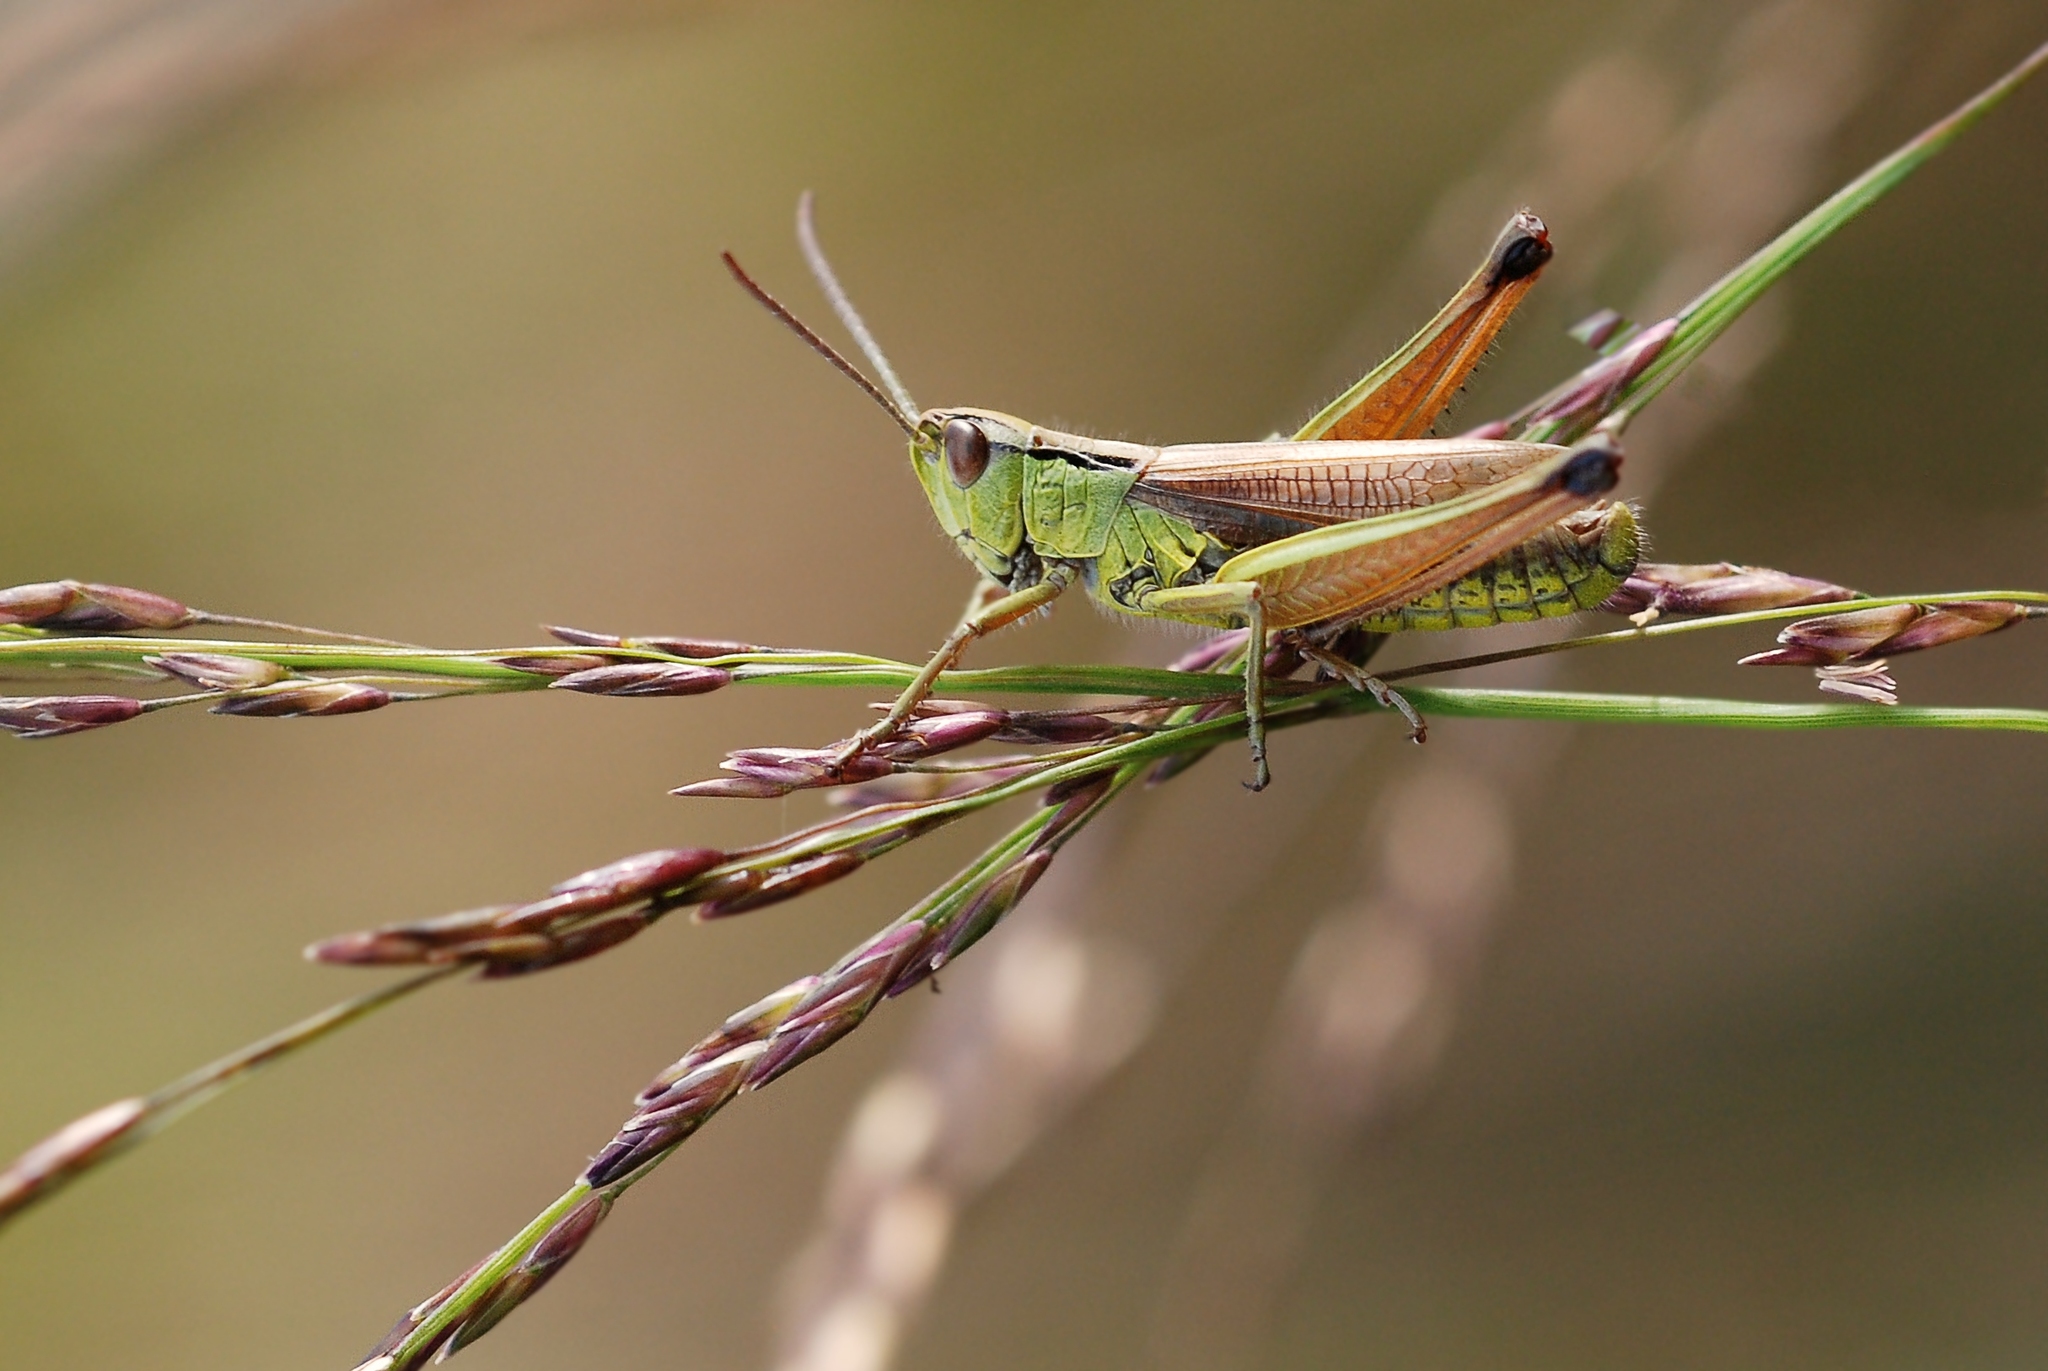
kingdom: Animalia
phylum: Arthropoda
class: Insecta
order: Orthoptera
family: Acrididae
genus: Pseudochorthippus
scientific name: Pseudochorthippus montanus
